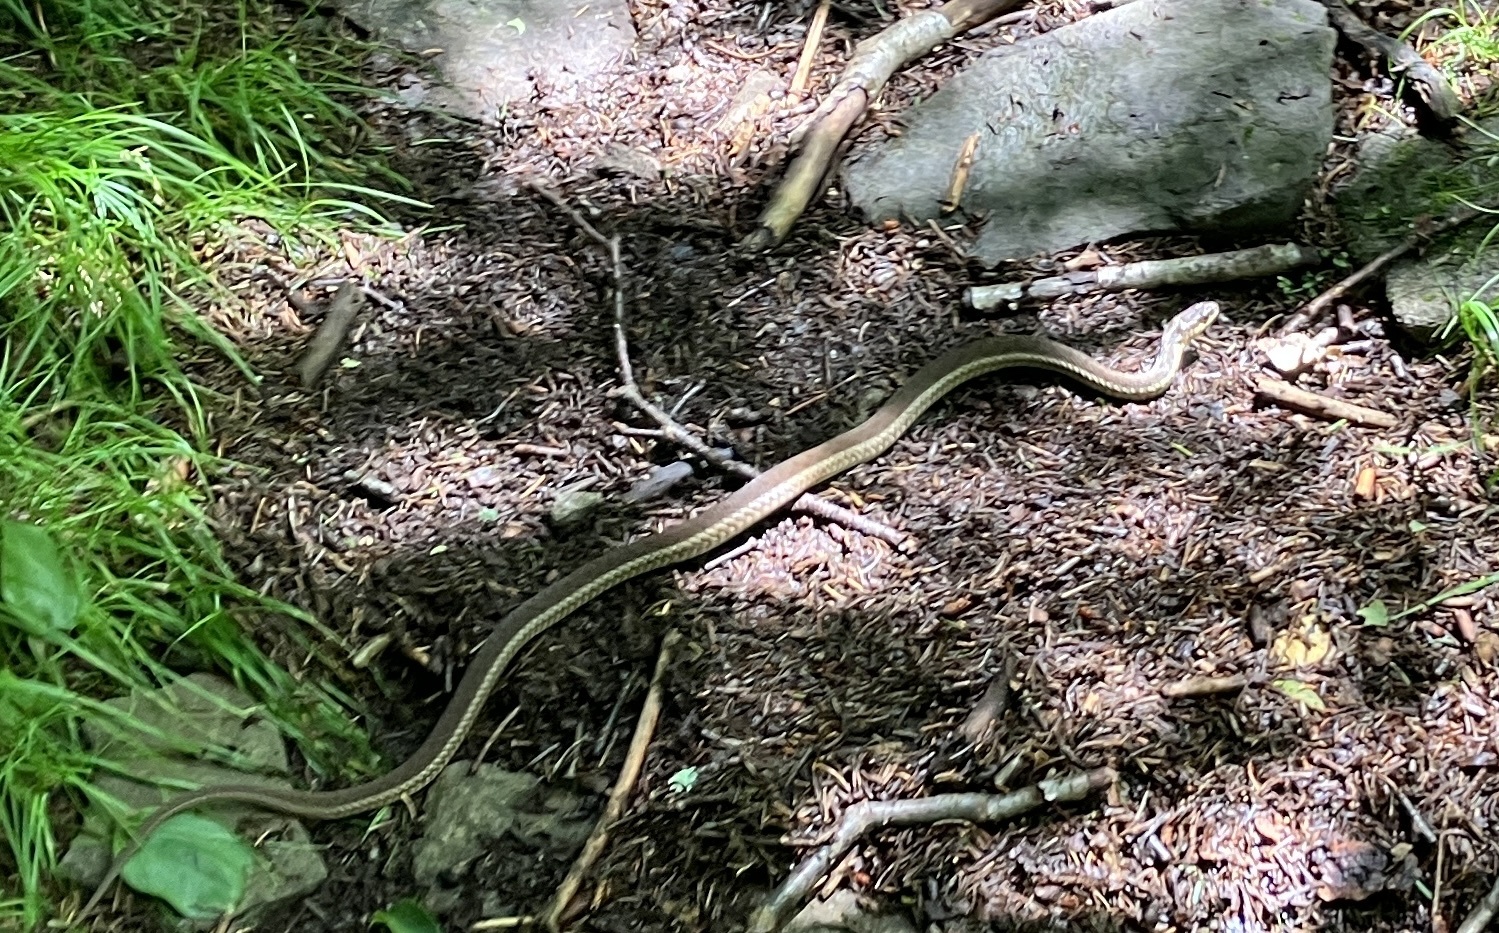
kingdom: Animalia
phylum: Chordata
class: Squamata
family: Colubridae
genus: Thamnophis
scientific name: Thamnophis sirtalis
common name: Common garter snake
